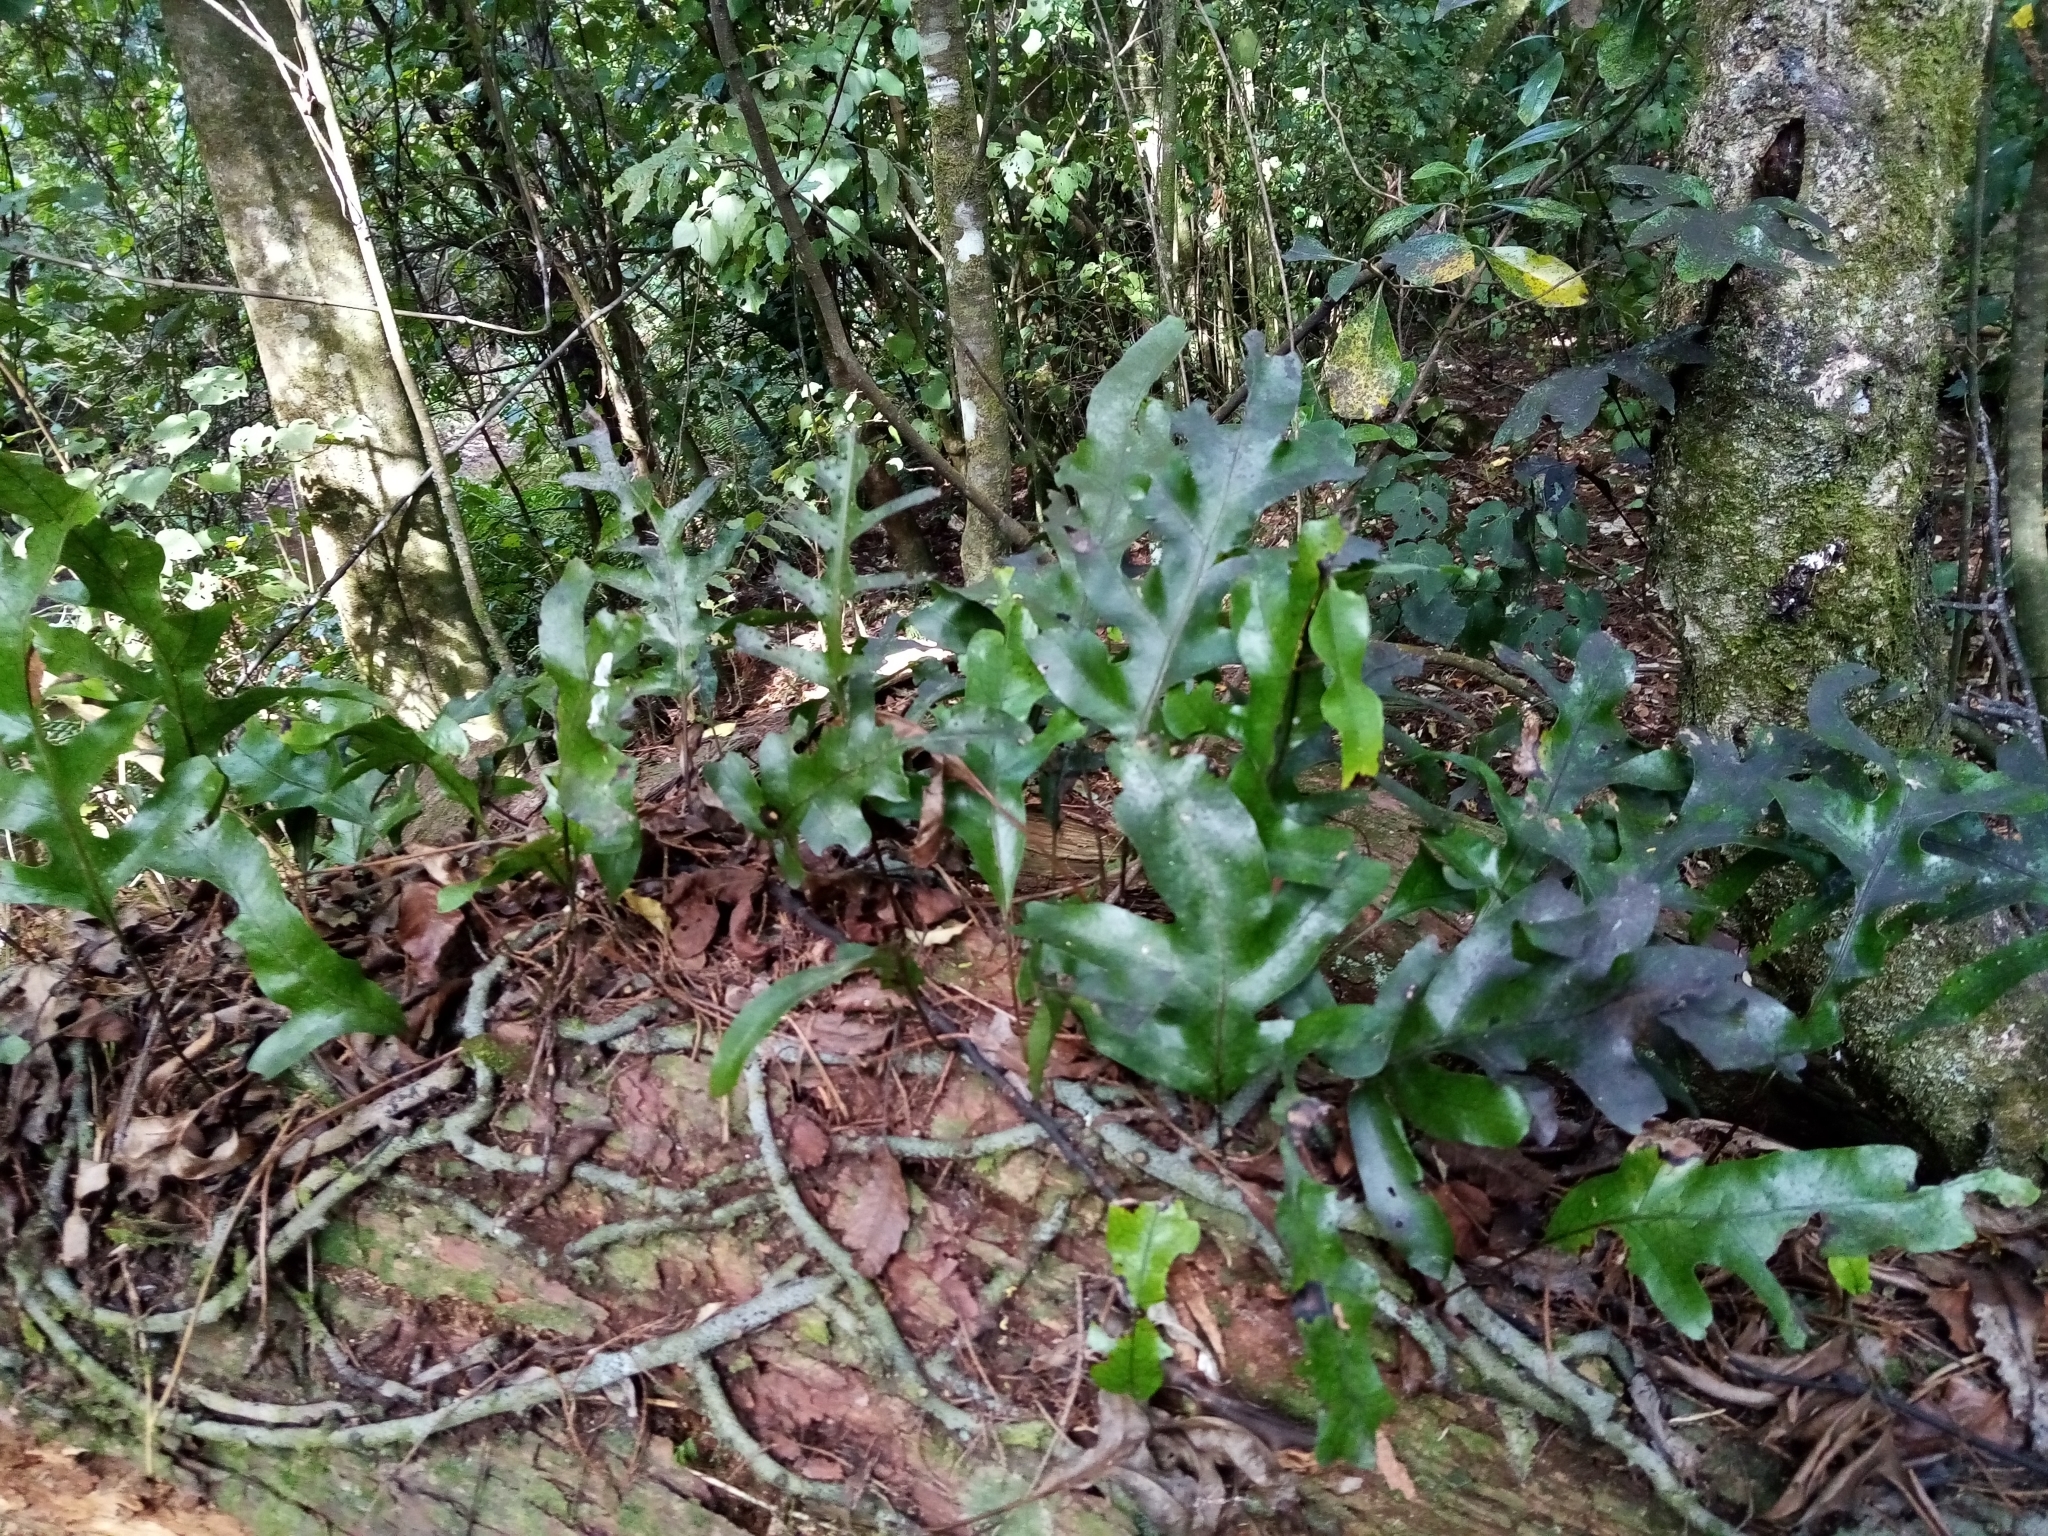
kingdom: Plantae
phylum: Tracheophyta
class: Polypodiopsida
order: Polypodiales
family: Polypodiaceae
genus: Lecanopteris
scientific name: Lecanopteris pustulata
